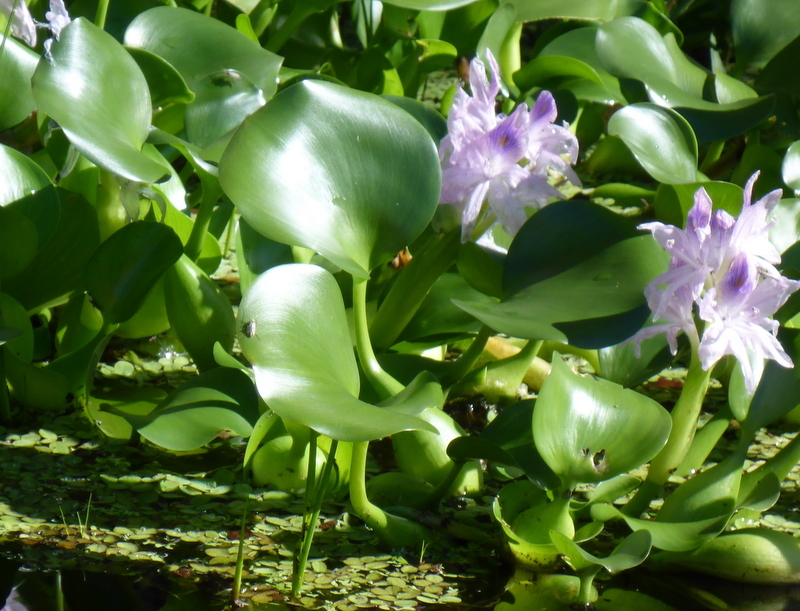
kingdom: Plantae
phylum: Tracheophyta
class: Liliopsida
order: Commelinales
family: Pontederiaceae
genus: Pontederia
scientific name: Pontederia crassipes
